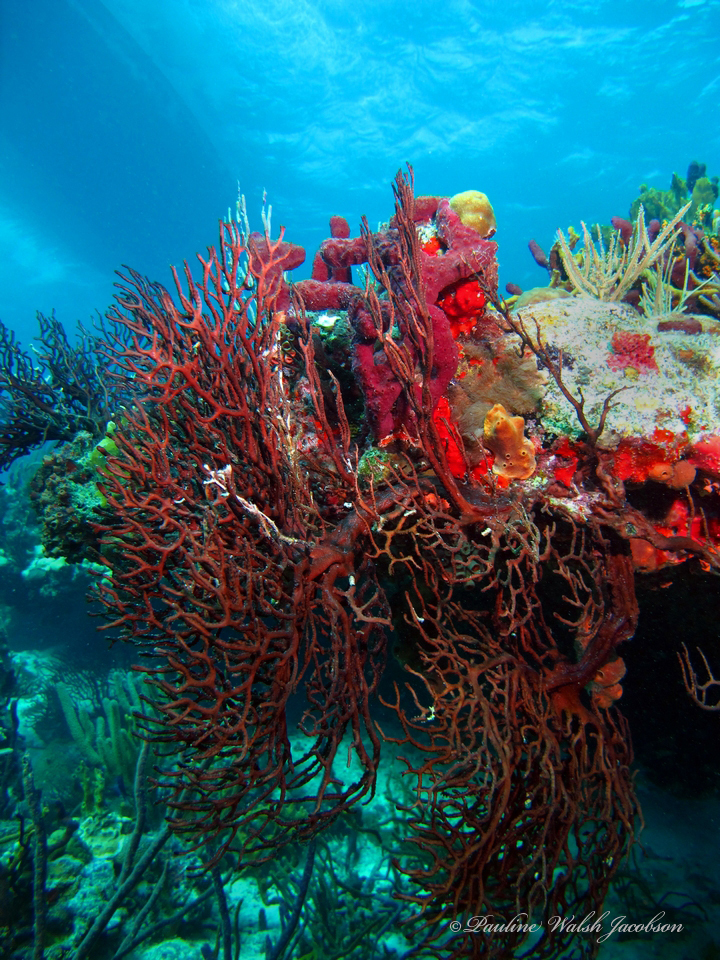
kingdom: Animalia
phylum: Cnidaria
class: Anthozoa
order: Malacalcyonacea
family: Melithaeidae
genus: Iciligorgia
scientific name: Iciligorgia schrammi
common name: Black sea fan
